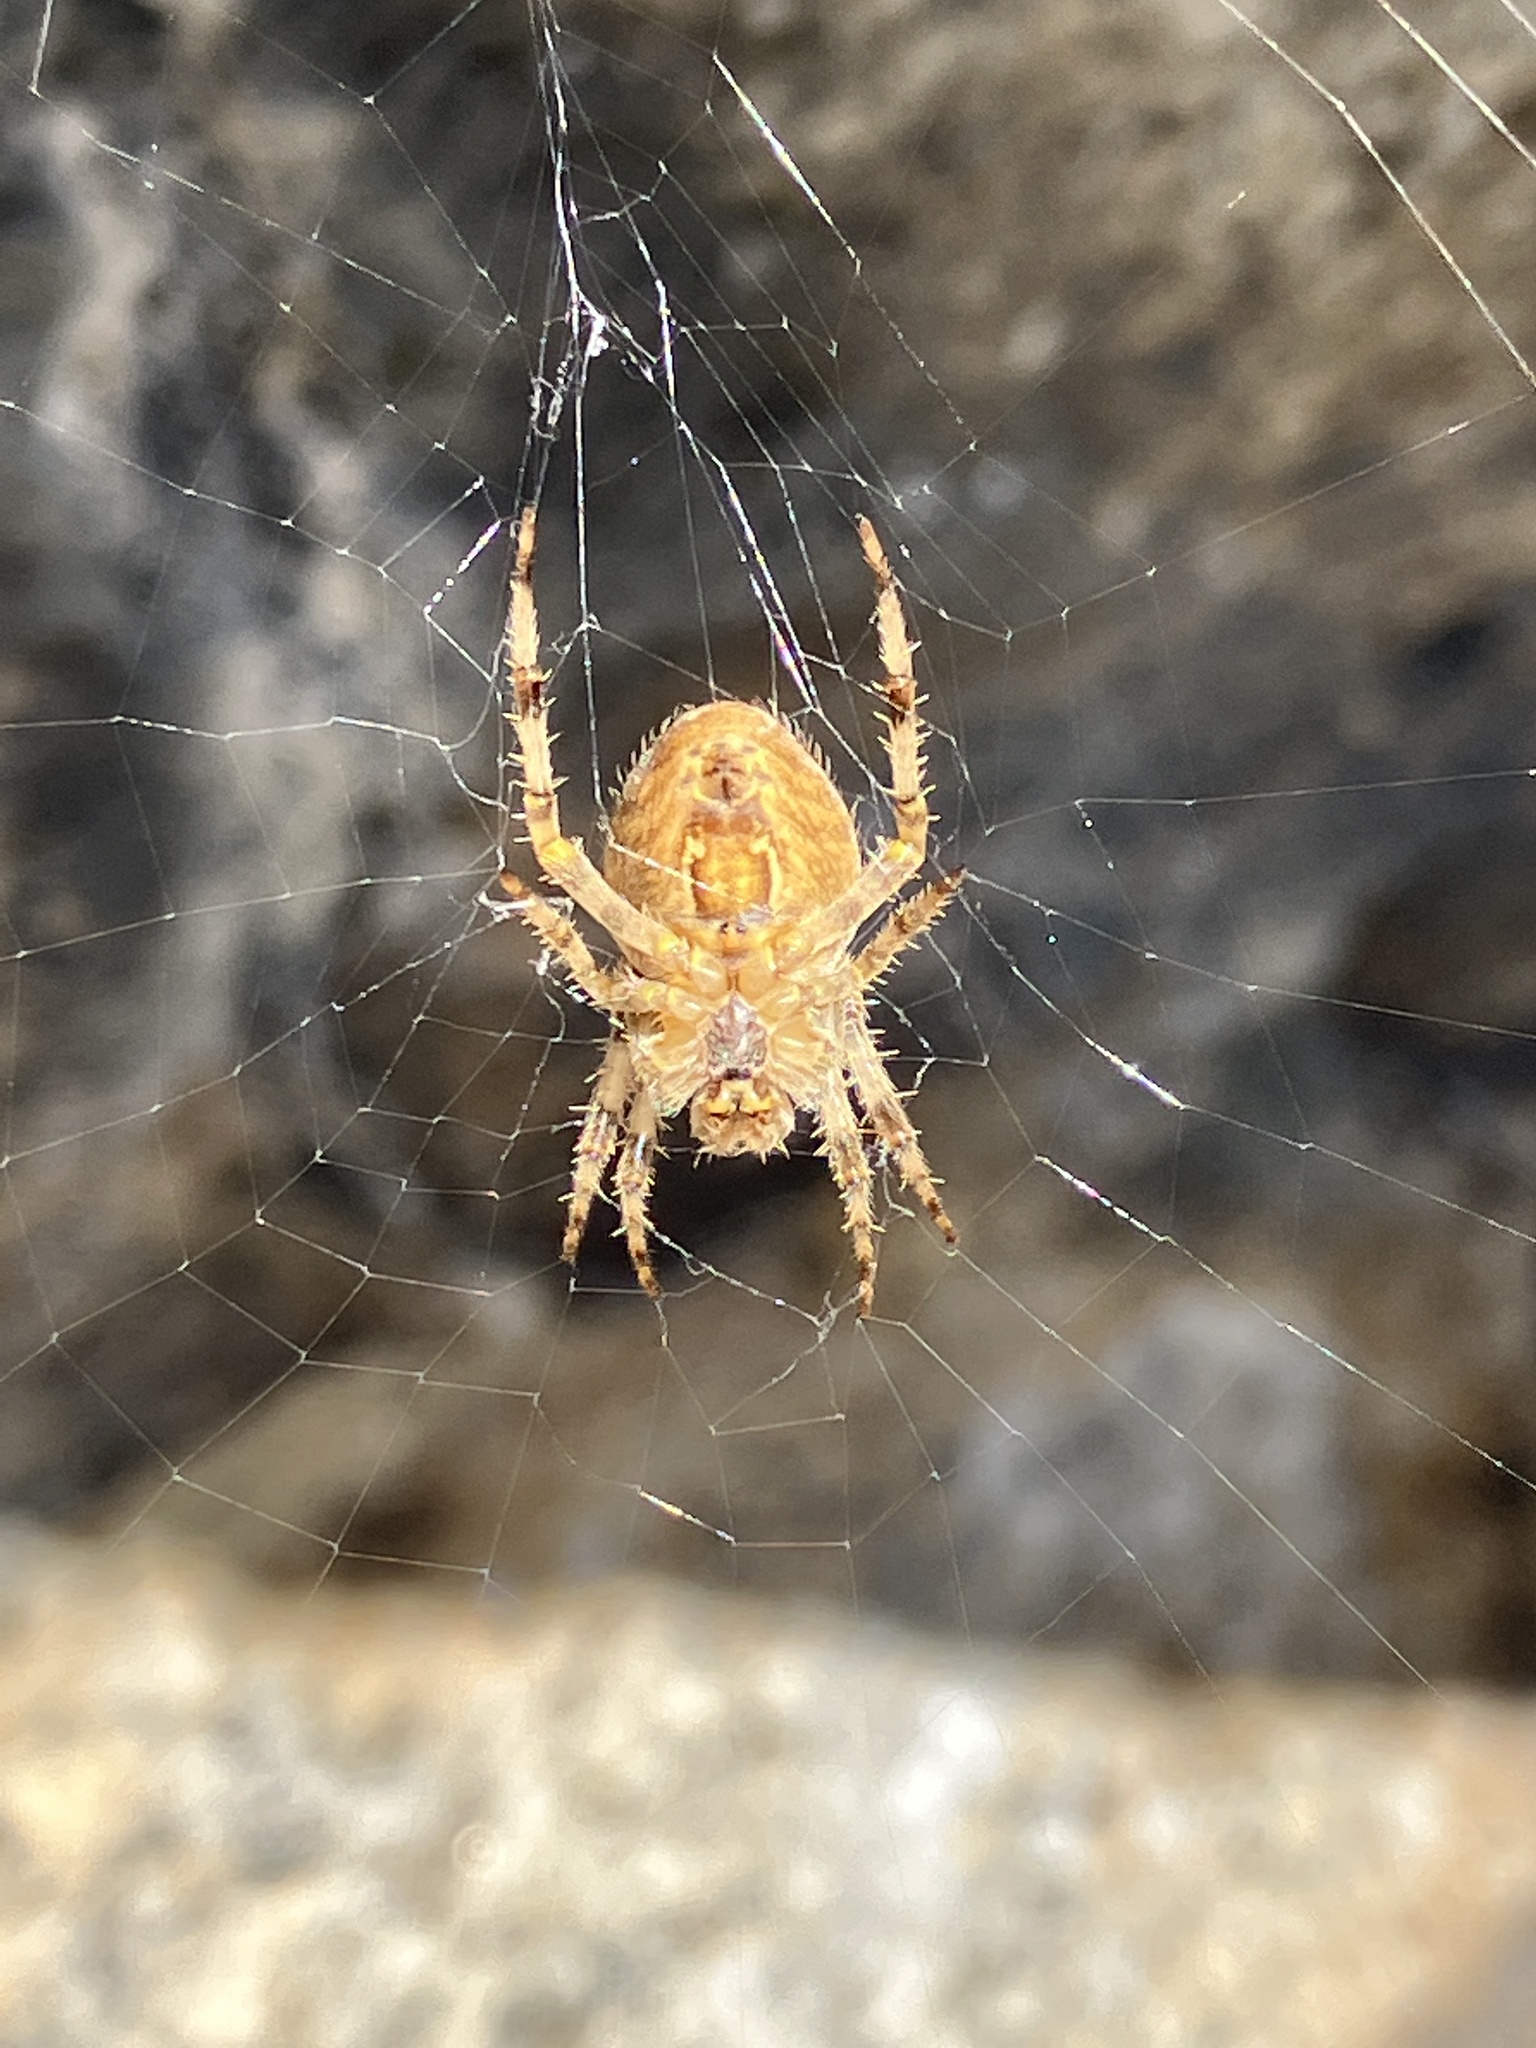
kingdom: Animalia
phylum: Arthropoda
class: Arachnida
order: Araneae
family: Araneidae
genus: Araneus
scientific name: Araneus diadematus
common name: Cross orbweaver
